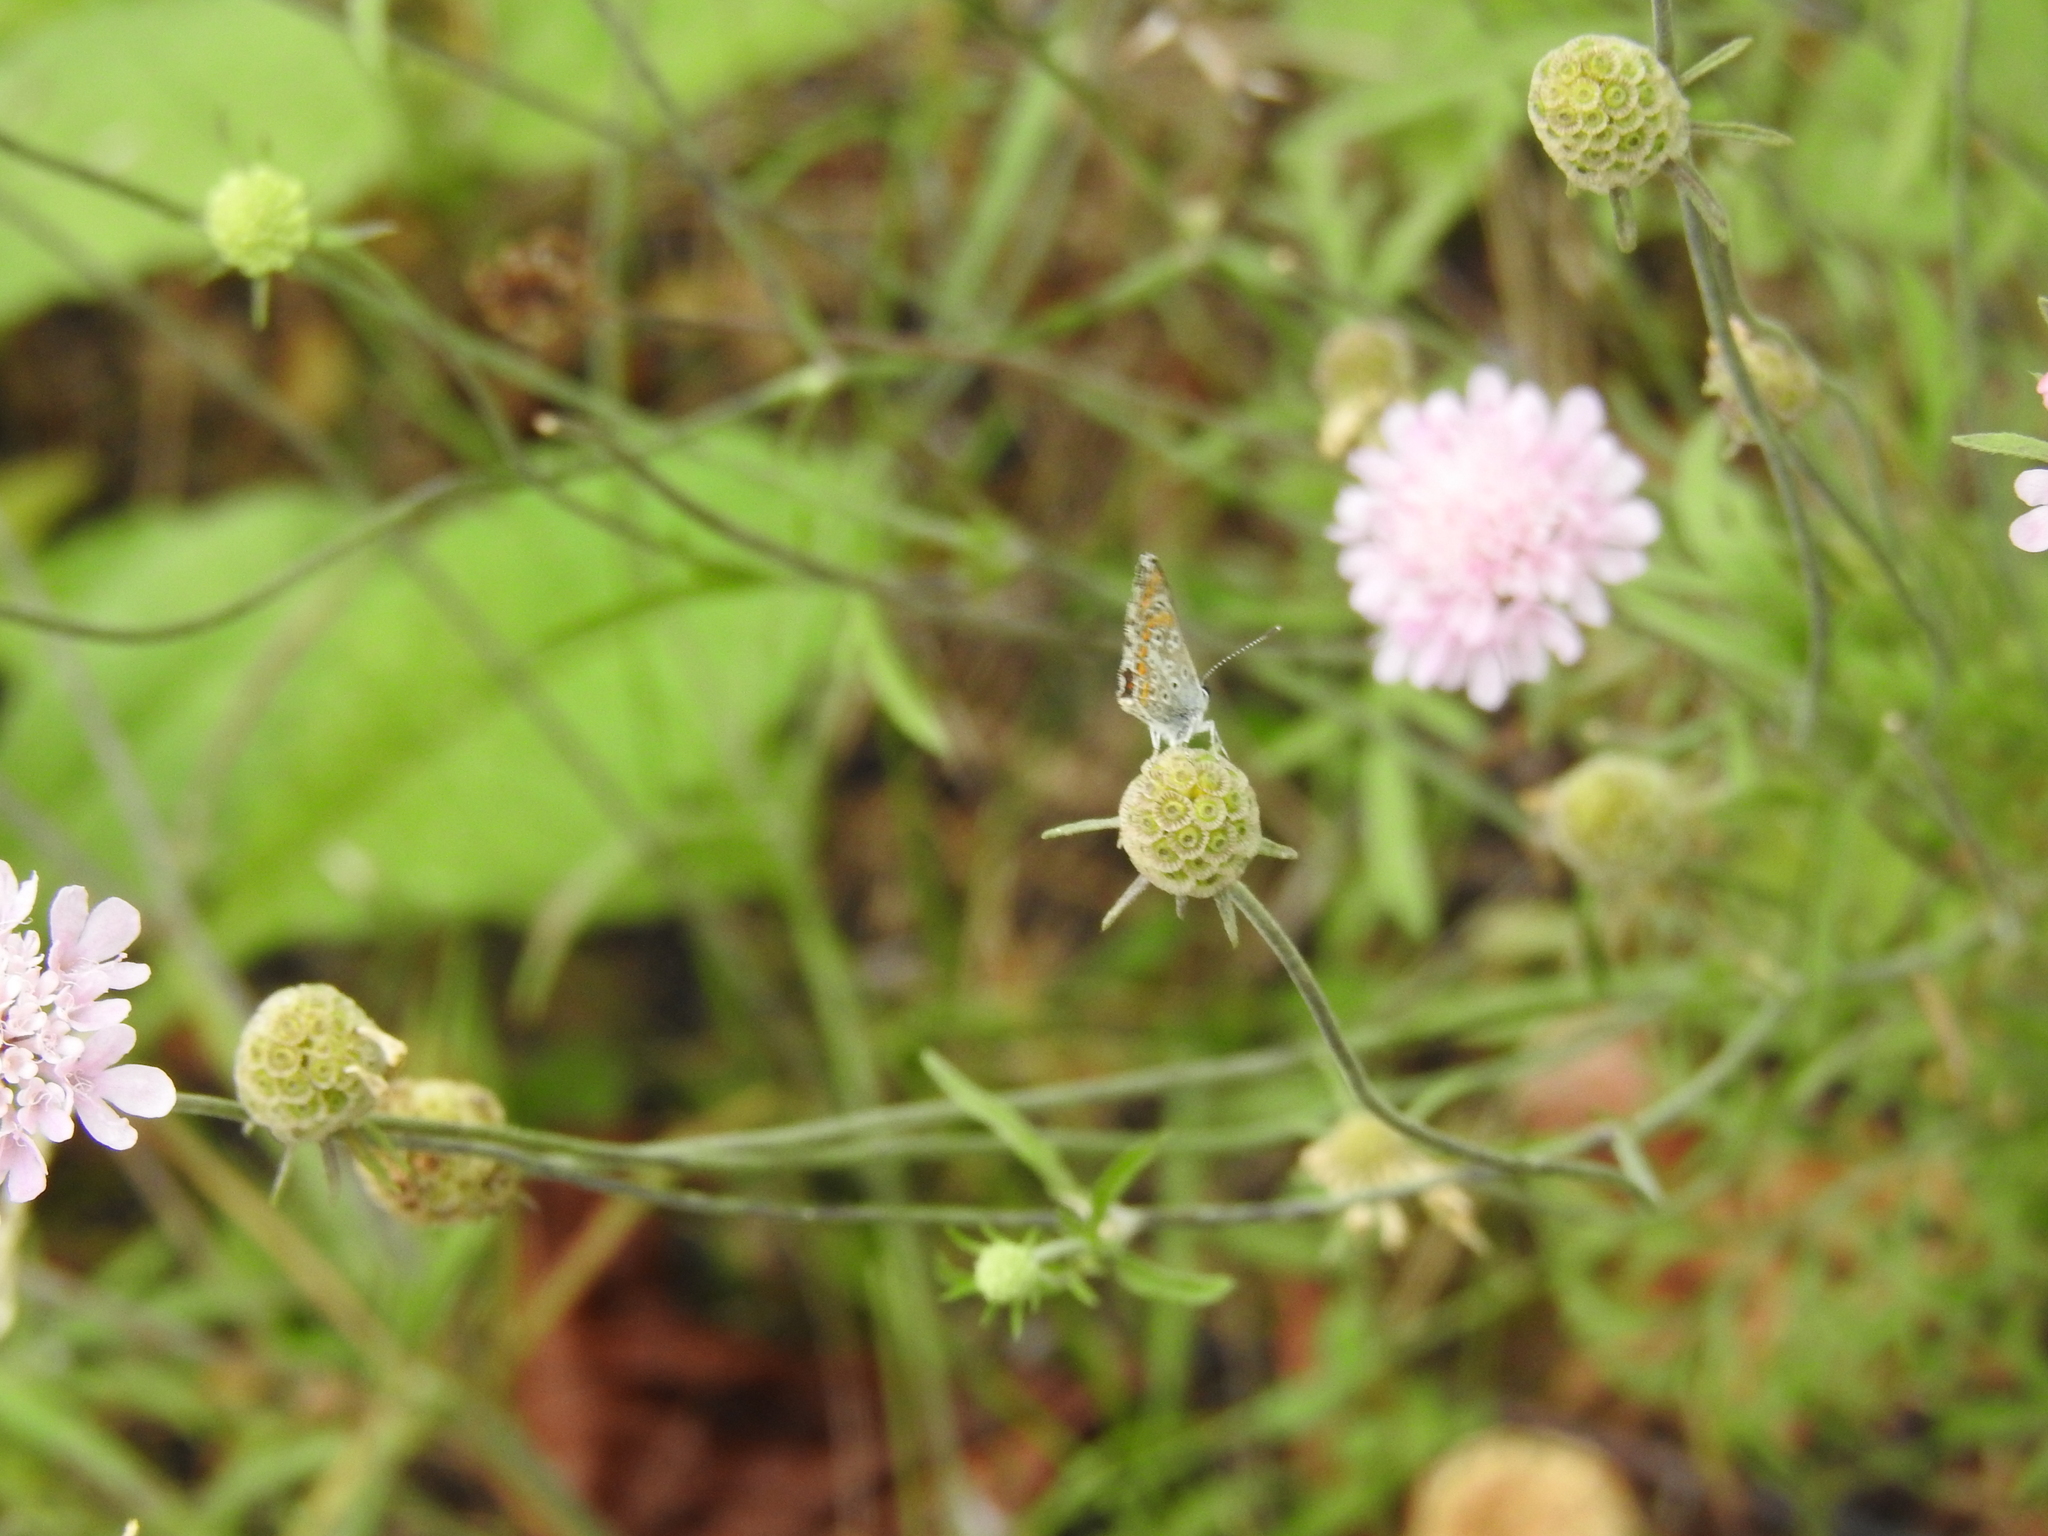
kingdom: Animalia
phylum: Arthropoda
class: Insecta
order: Lepidoptera
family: Lycaenidae
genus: Aricia
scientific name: Aricia agestis
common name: Brown argus
